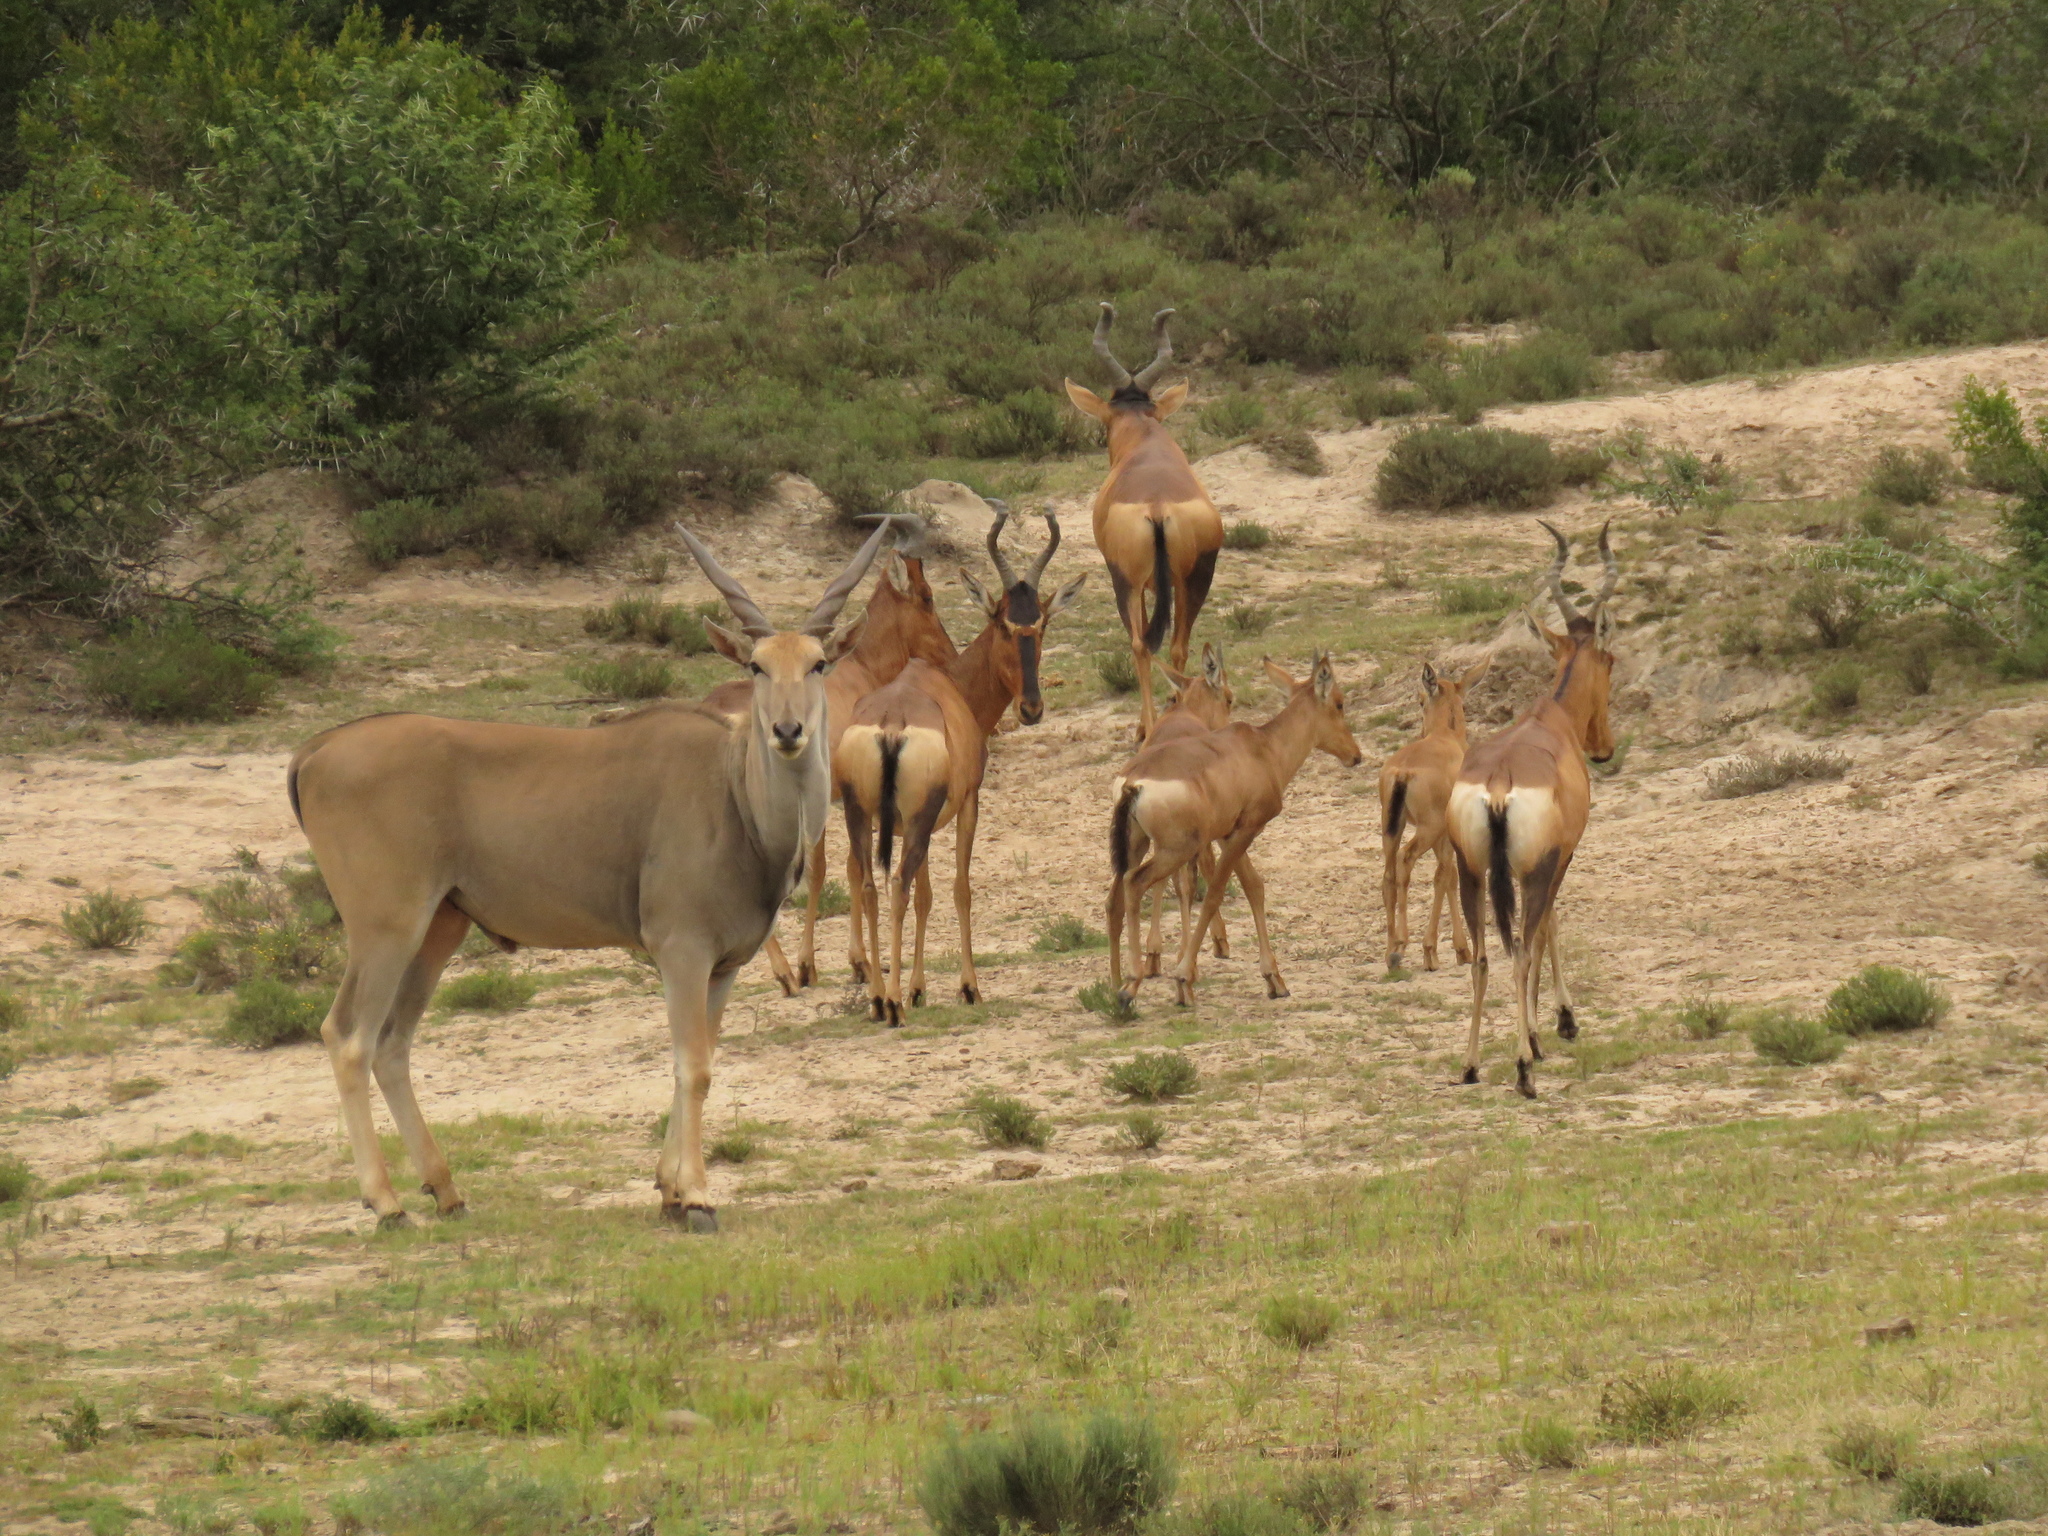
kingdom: Animalia
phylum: Chordata
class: Mammalia
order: Artiodactyla
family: Bovidae
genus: Taurotragus
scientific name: Taurotragus oryx
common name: Common eland
